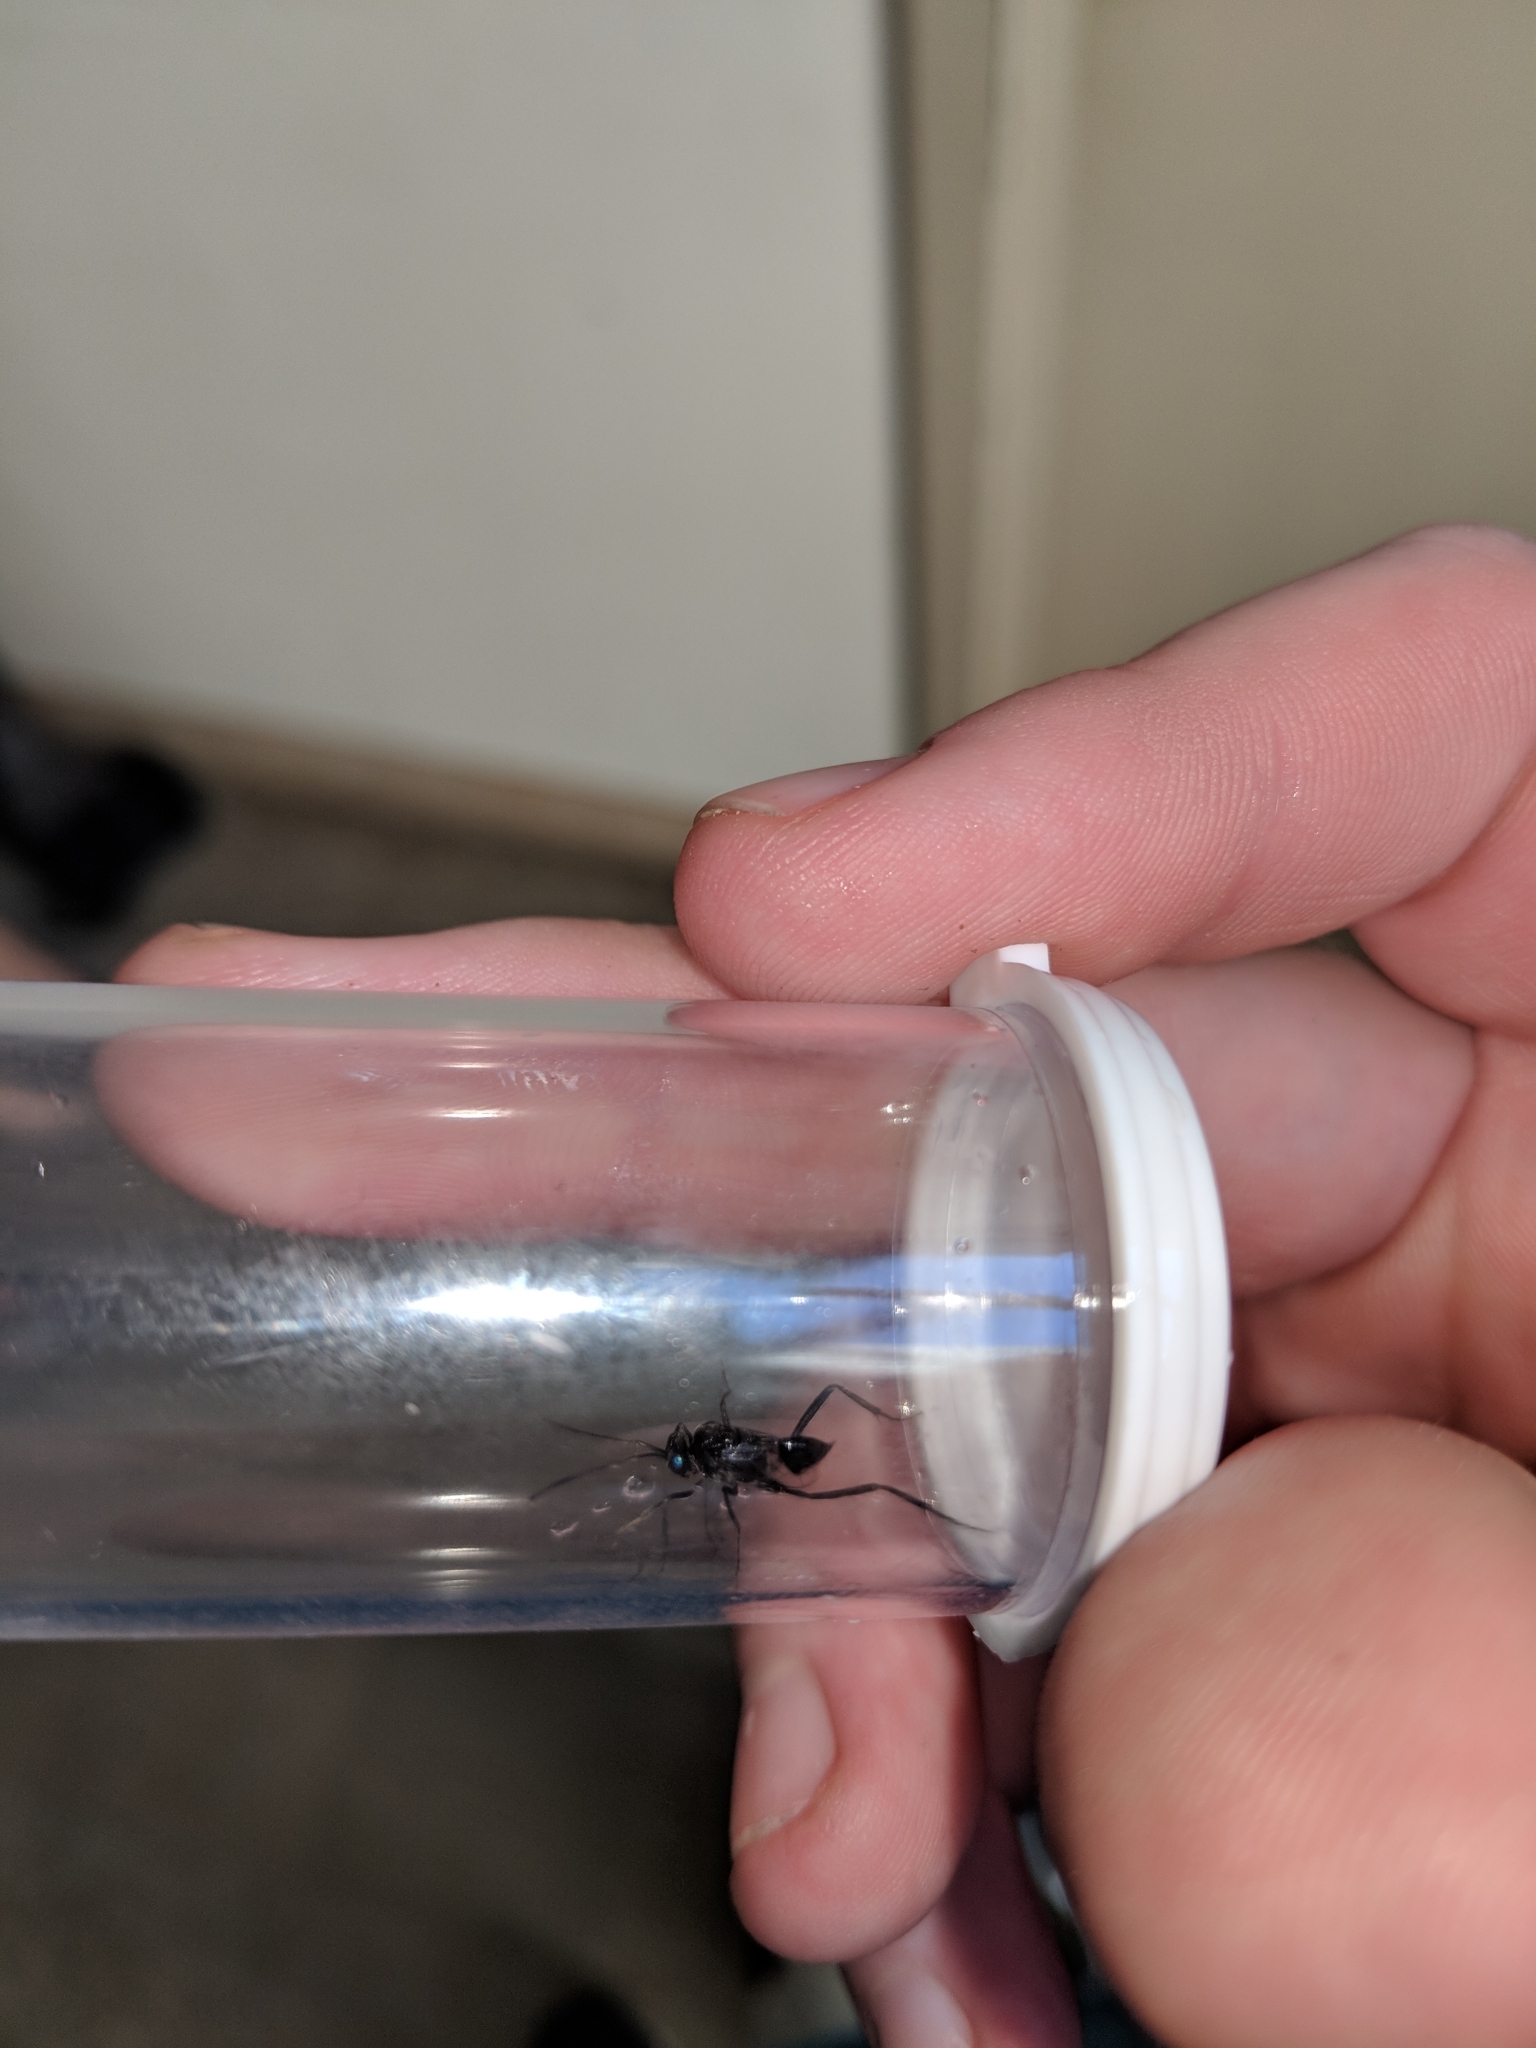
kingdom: Animalia
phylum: Arthropoda
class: Insecta
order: Hymenoptera
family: Evaniidae
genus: Evania
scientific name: Evania appendigaster
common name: Ensign wasp
